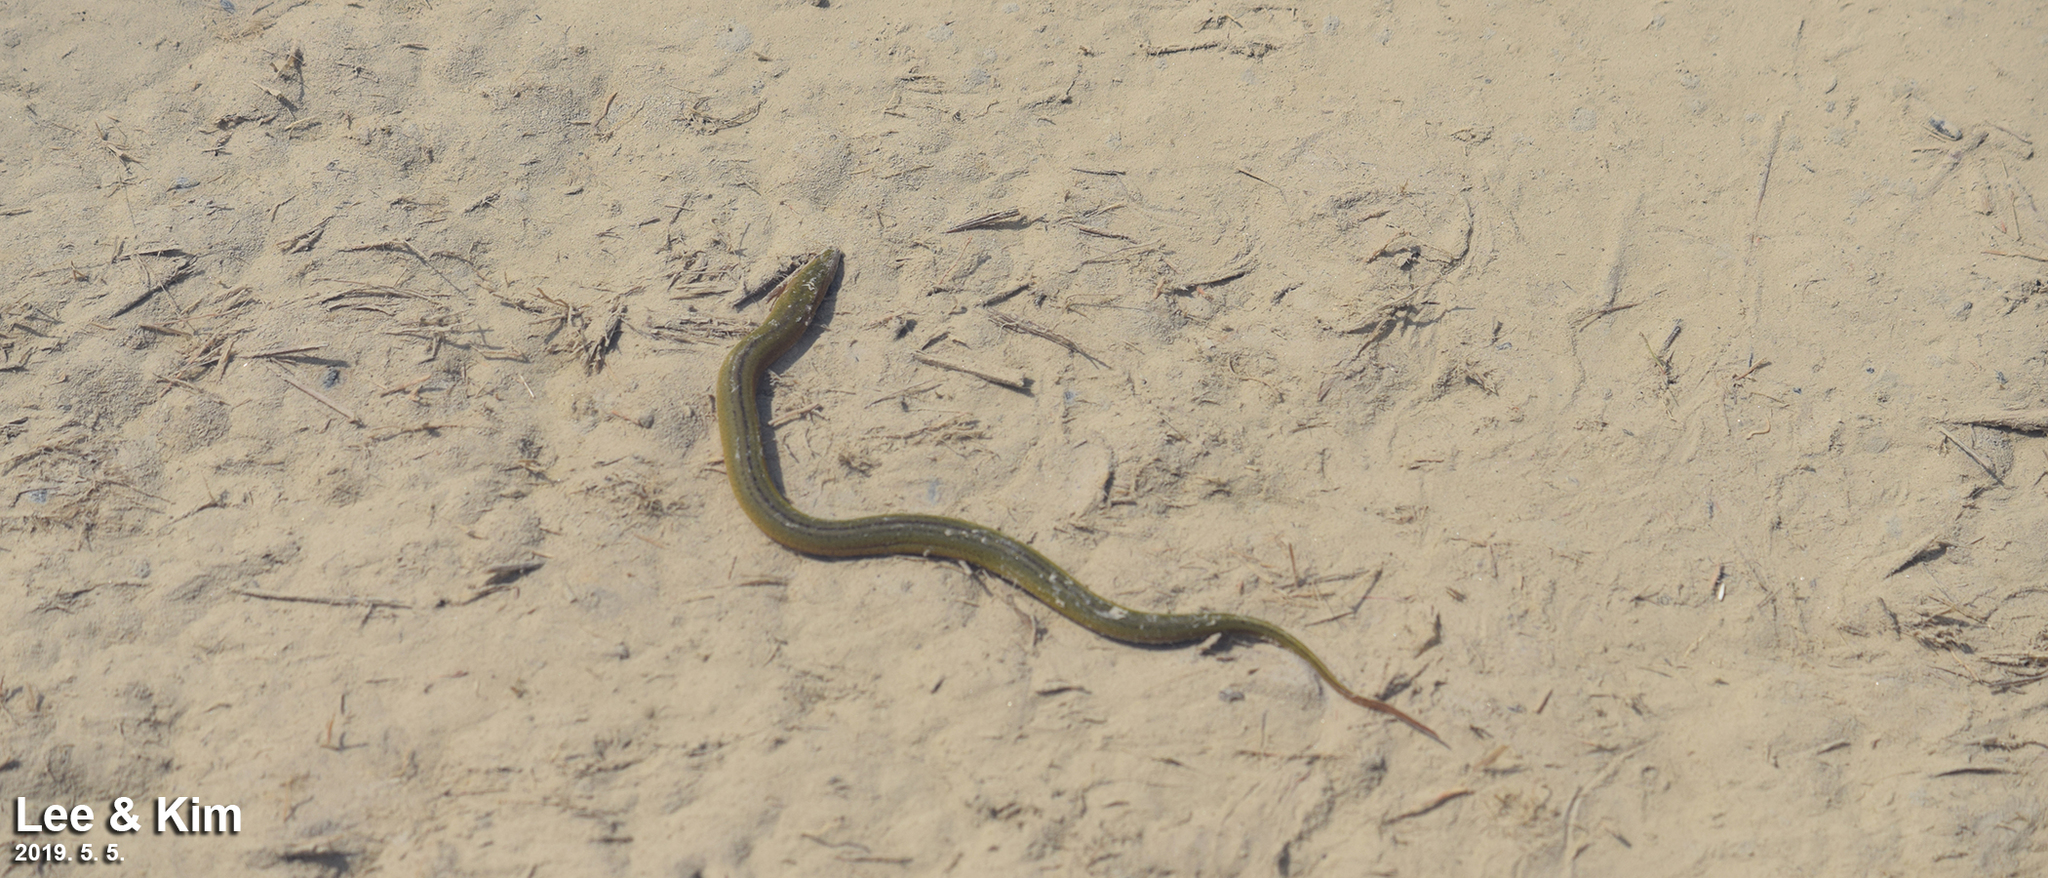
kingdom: Animalia
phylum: Chordata
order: Synbranchiformes
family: Synbranchidae
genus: Monopterus
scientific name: Monopterus albus
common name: Asian swamp eel
